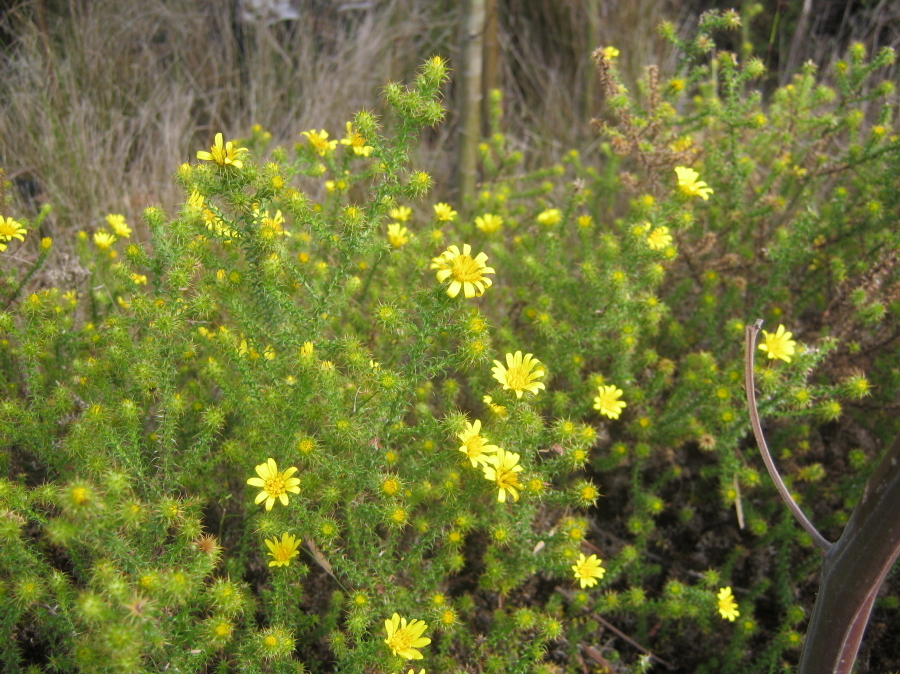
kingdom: Plantae
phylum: Tracheophyta
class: Magnoliopsida
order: Asterales
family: Asteraceae
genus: Cullumia
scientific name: Cullumia decurrens
